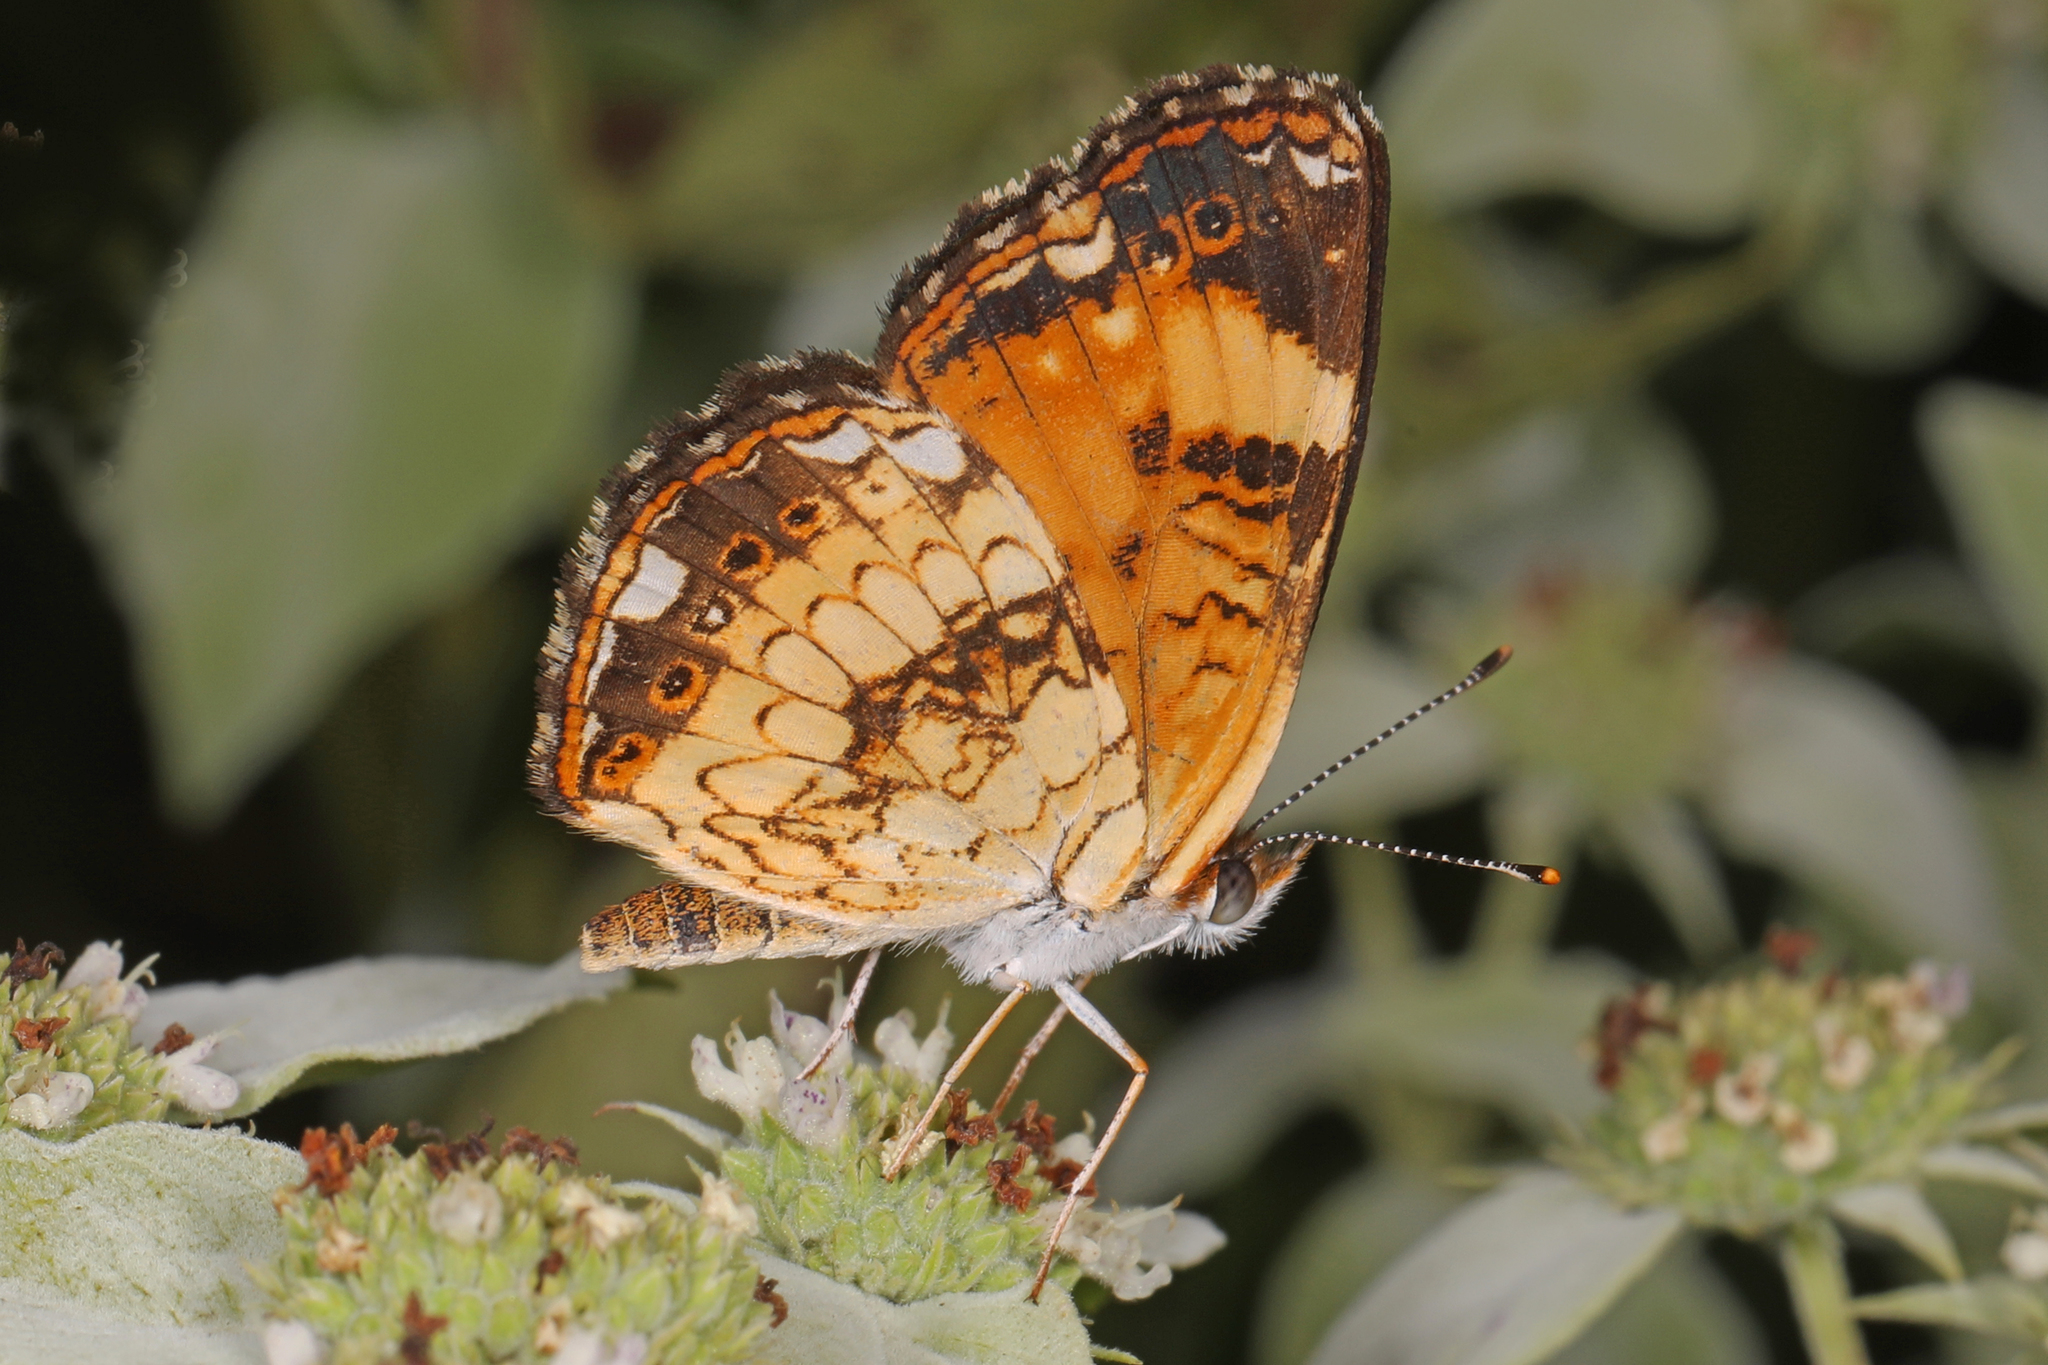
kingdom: Animalia
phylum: Arthropoda
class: Insecta
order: Lepidoptera
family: Nymphalidae
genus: Chlosyne
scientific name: Chlosyne nycteis
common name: Silvery checkerspot
